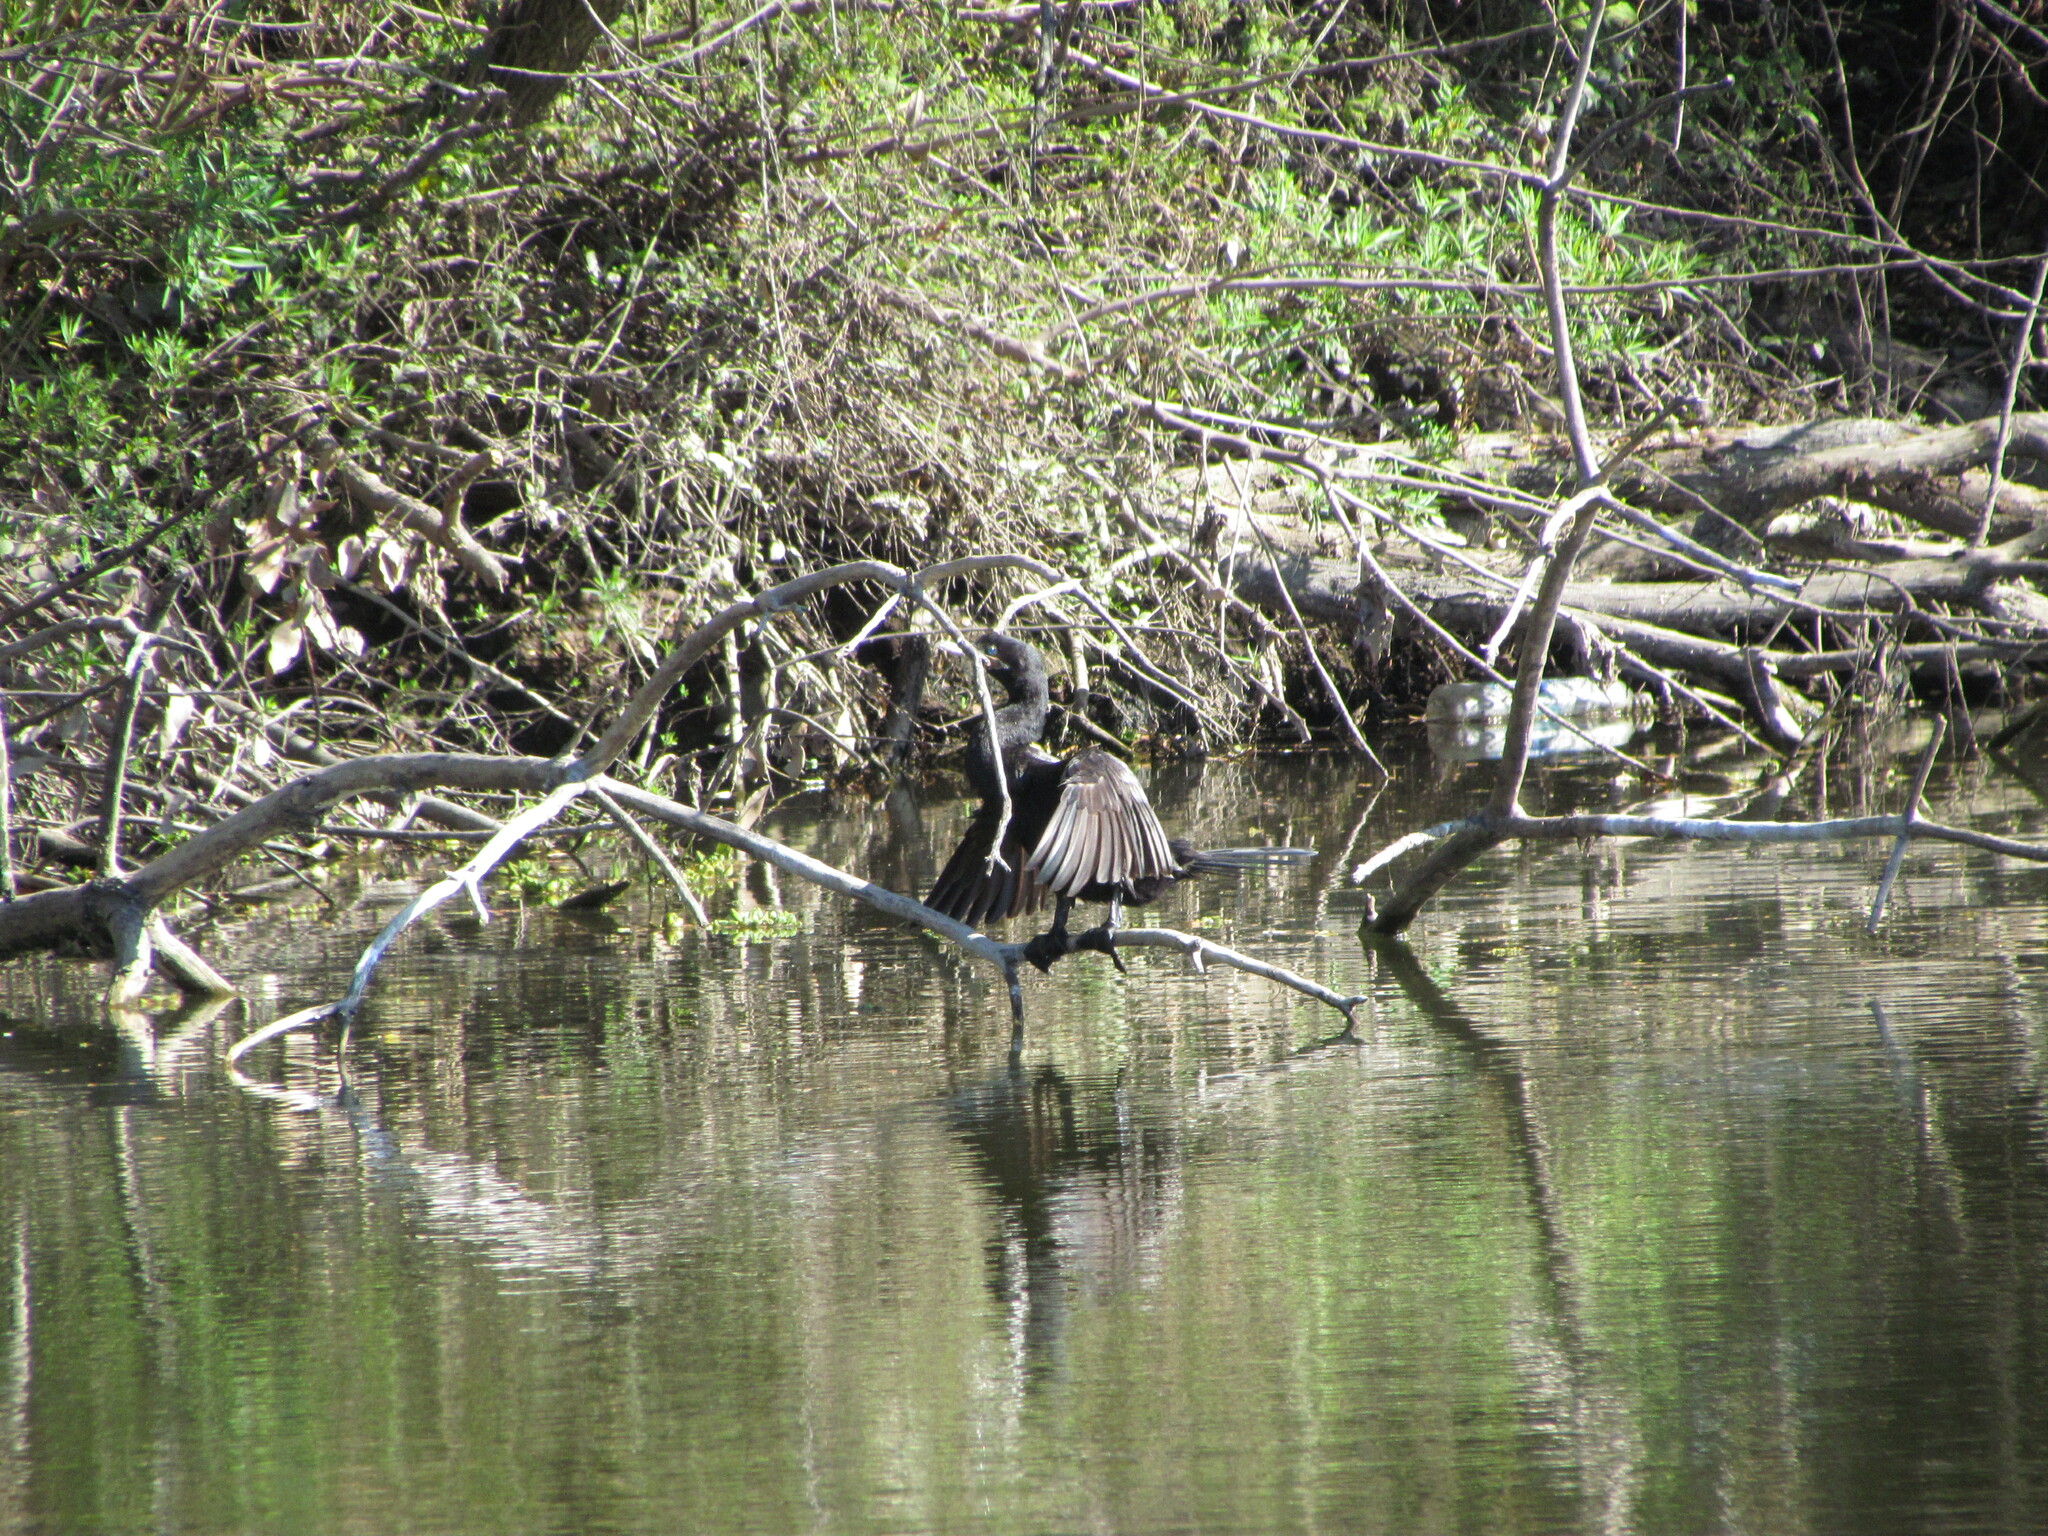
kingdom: Animalia
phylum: Chordata
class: Aves
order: Suliformes
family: Phalacrocoracidae
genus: Phalacrocorax
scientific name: Phalacrocorax brasilianus
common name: Neotropic cormorant
